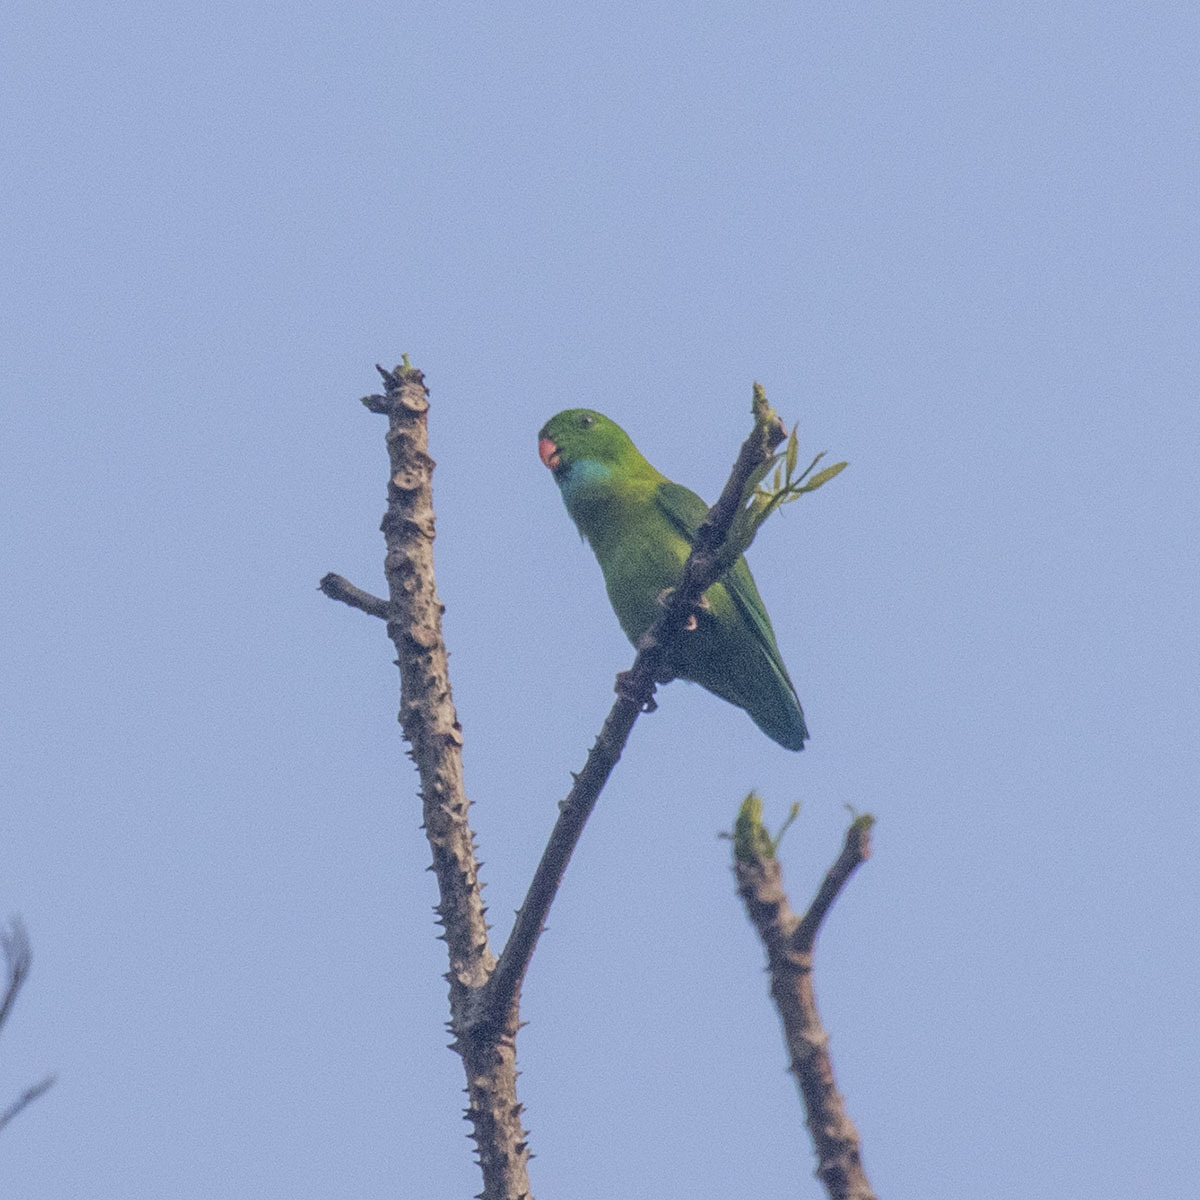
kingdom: Animalia
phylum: Chordata
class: Aves
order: Psittaciformes
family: Psittacidae
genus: Loriculus
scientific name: Loriculus vernalis
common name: Vernal hanging parrot
